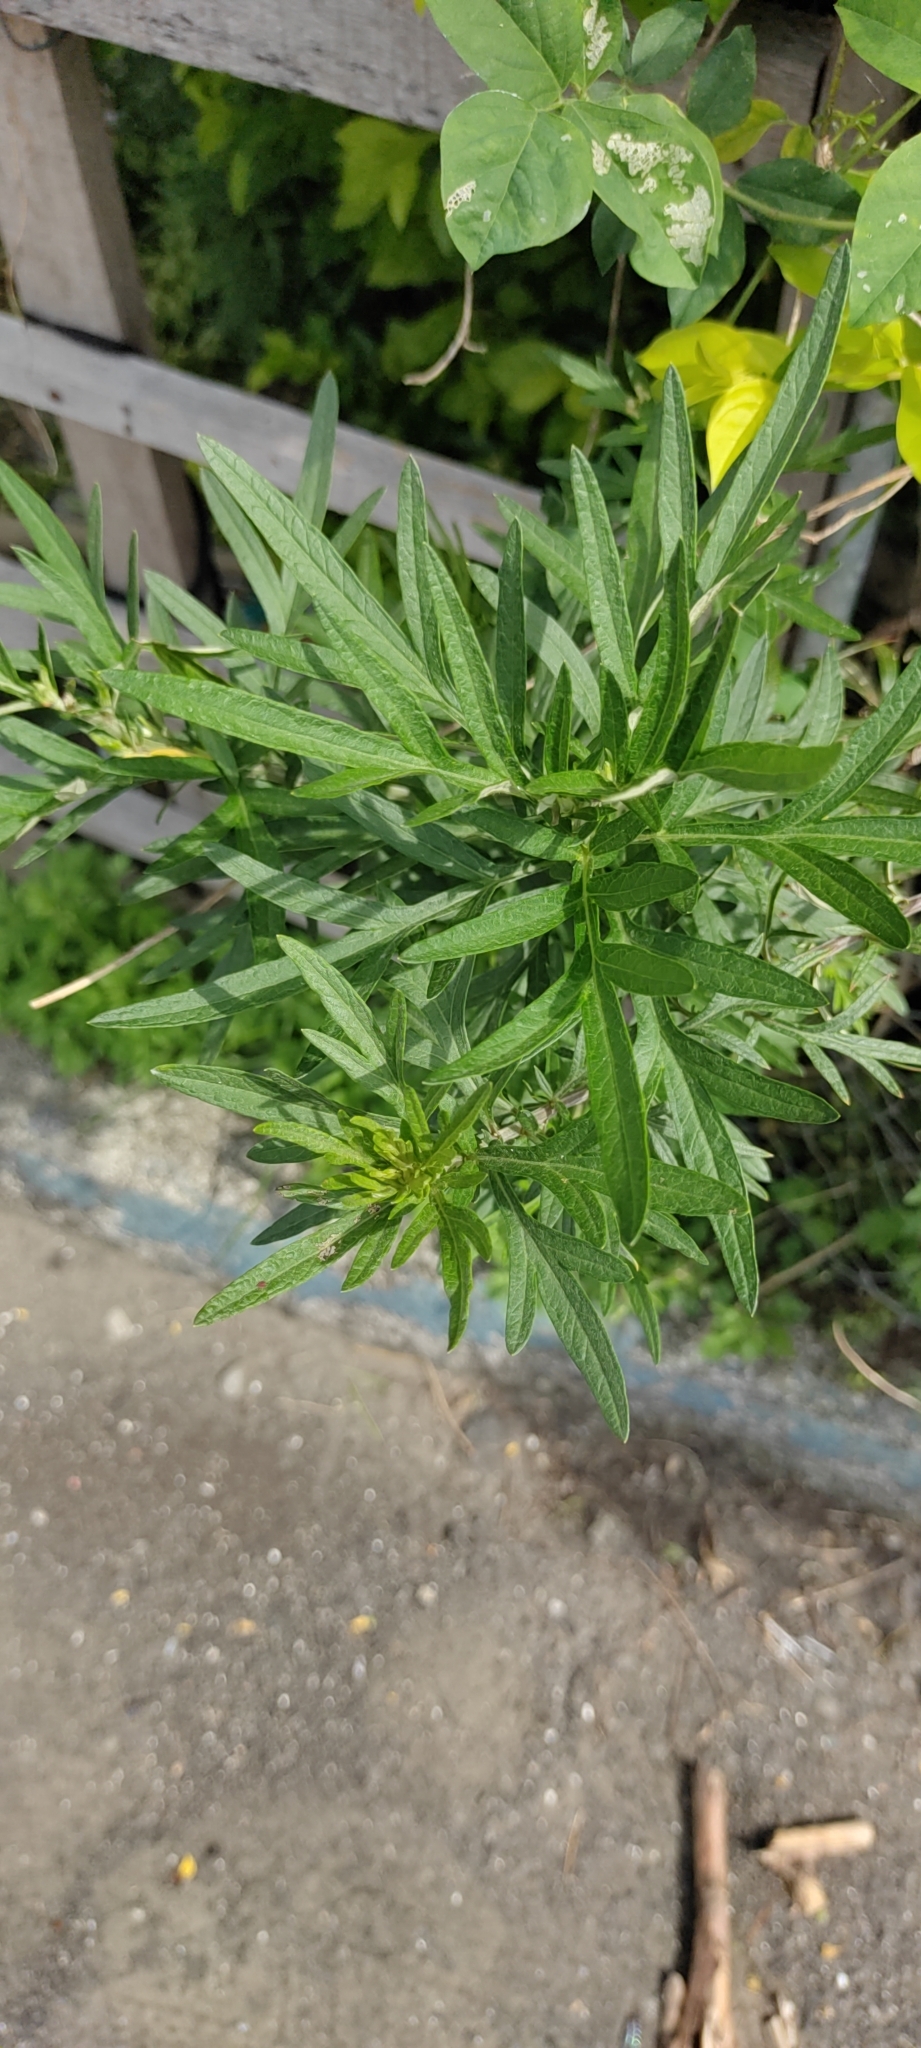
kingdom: Plantae
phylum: Tracheophyta
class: Magnoliopsida
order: Asterales
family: Asteraceae
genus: Artemisia
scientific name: Artemisia indica
